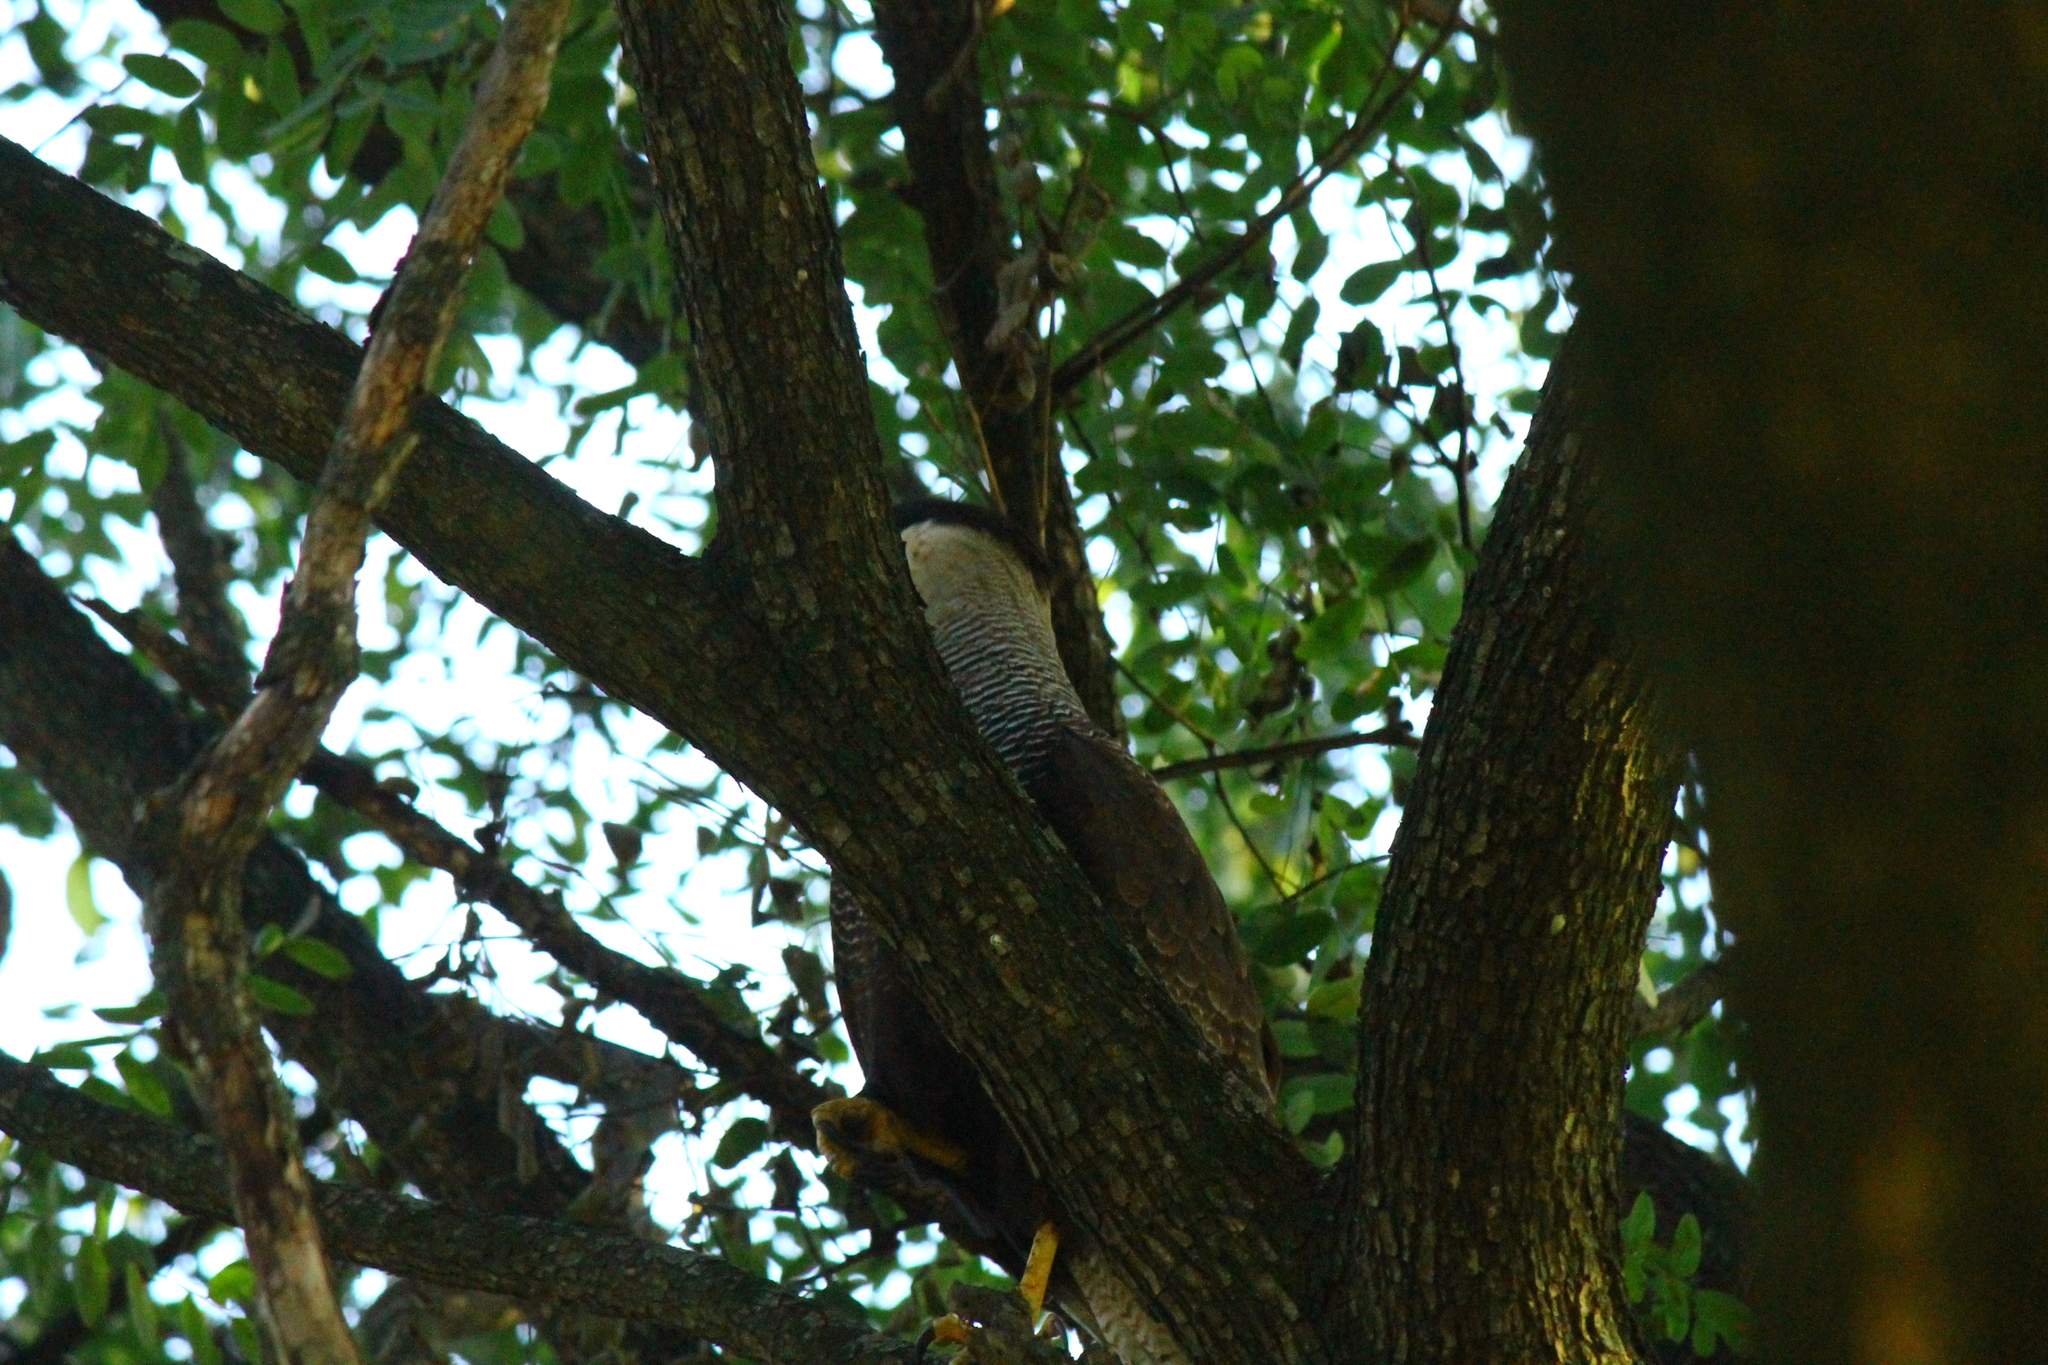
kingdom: Animalia
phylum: Chordata
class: Aves
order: Falconiformes
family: Falconidae
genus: Caracara
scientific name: Caracara plancus
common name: Southern caracara
